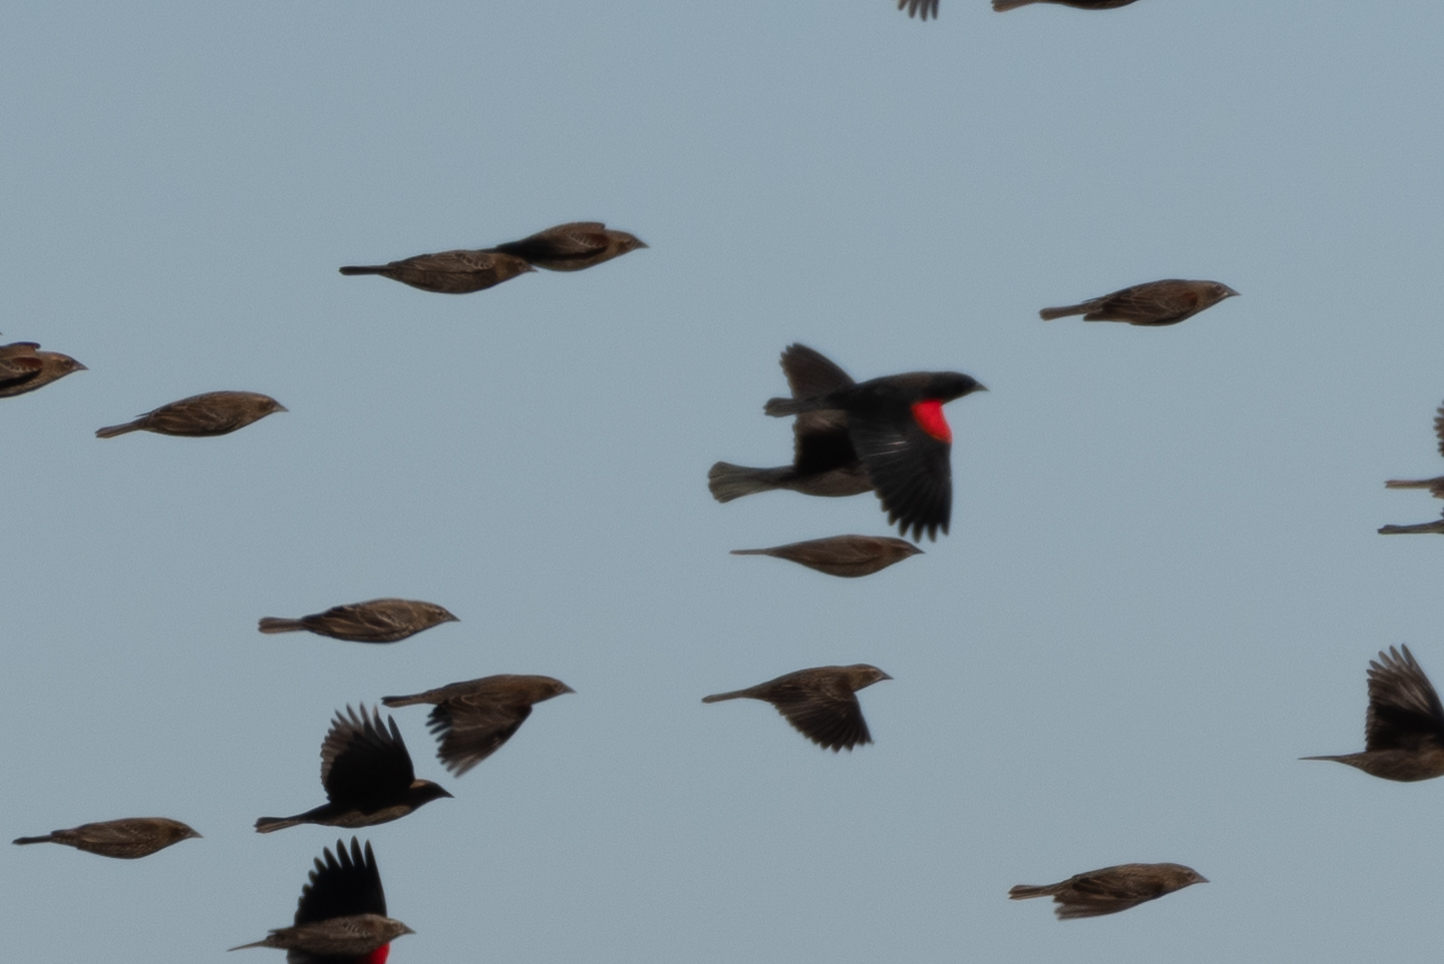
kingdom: Animalia
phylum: Chordata
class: Aves
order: Passeriformes
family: Icteridae
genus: Agelaius
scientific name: Agelaius phoeniceus
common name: Red-winged blackbird
